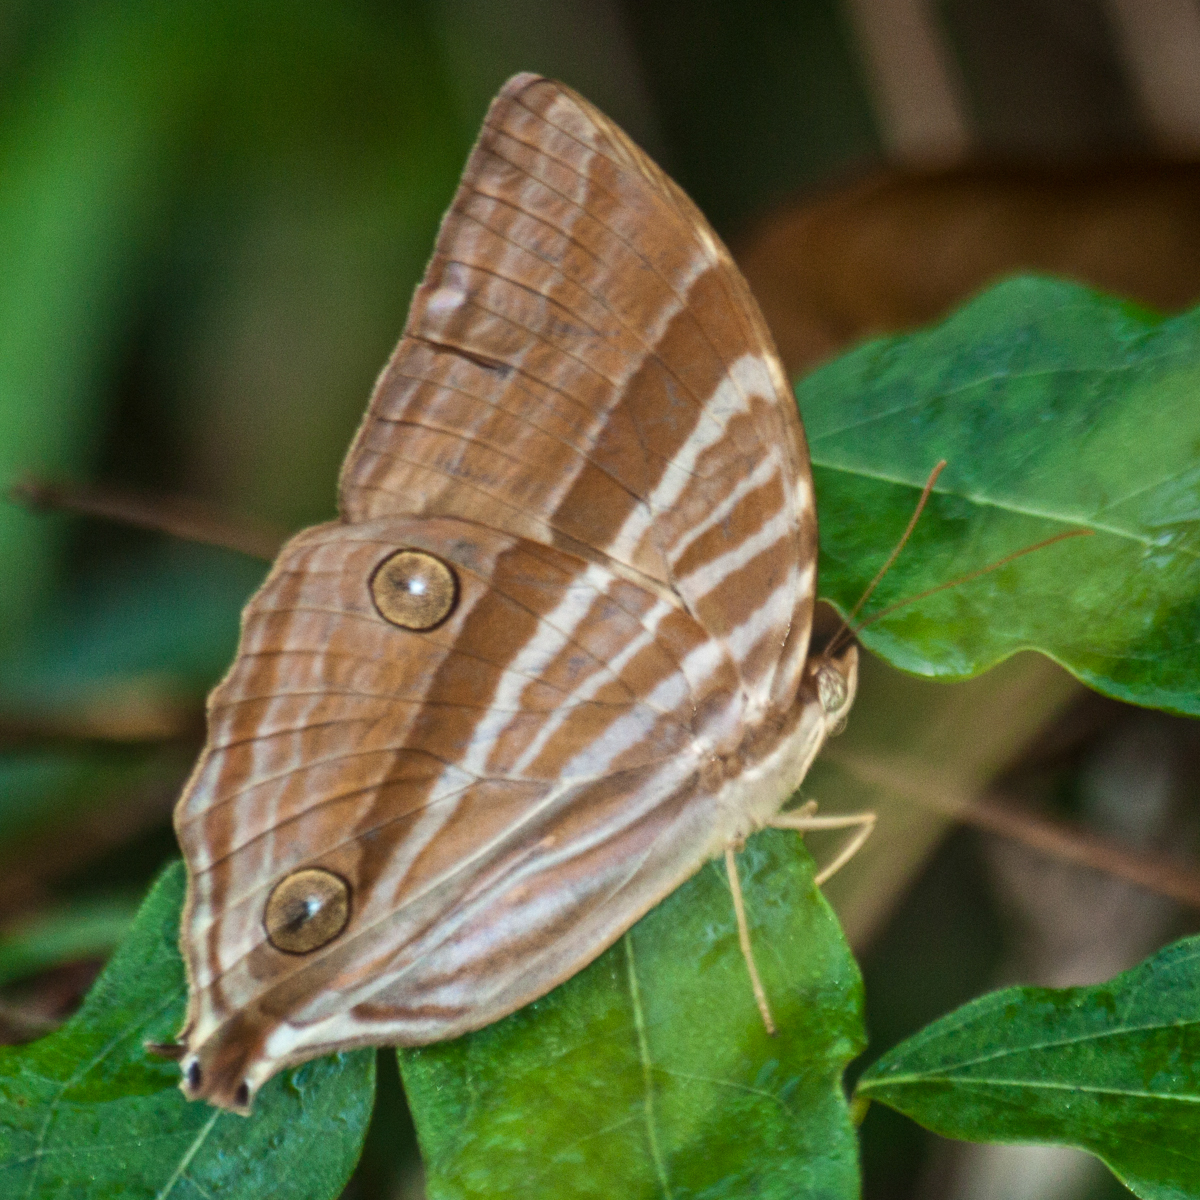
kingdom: Animalia
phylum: Arthropoda
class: Insecta
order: Lepidoptera
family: Nymphalidae
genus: Amathusia
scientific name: Amathusia phidippus
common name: Palm king
